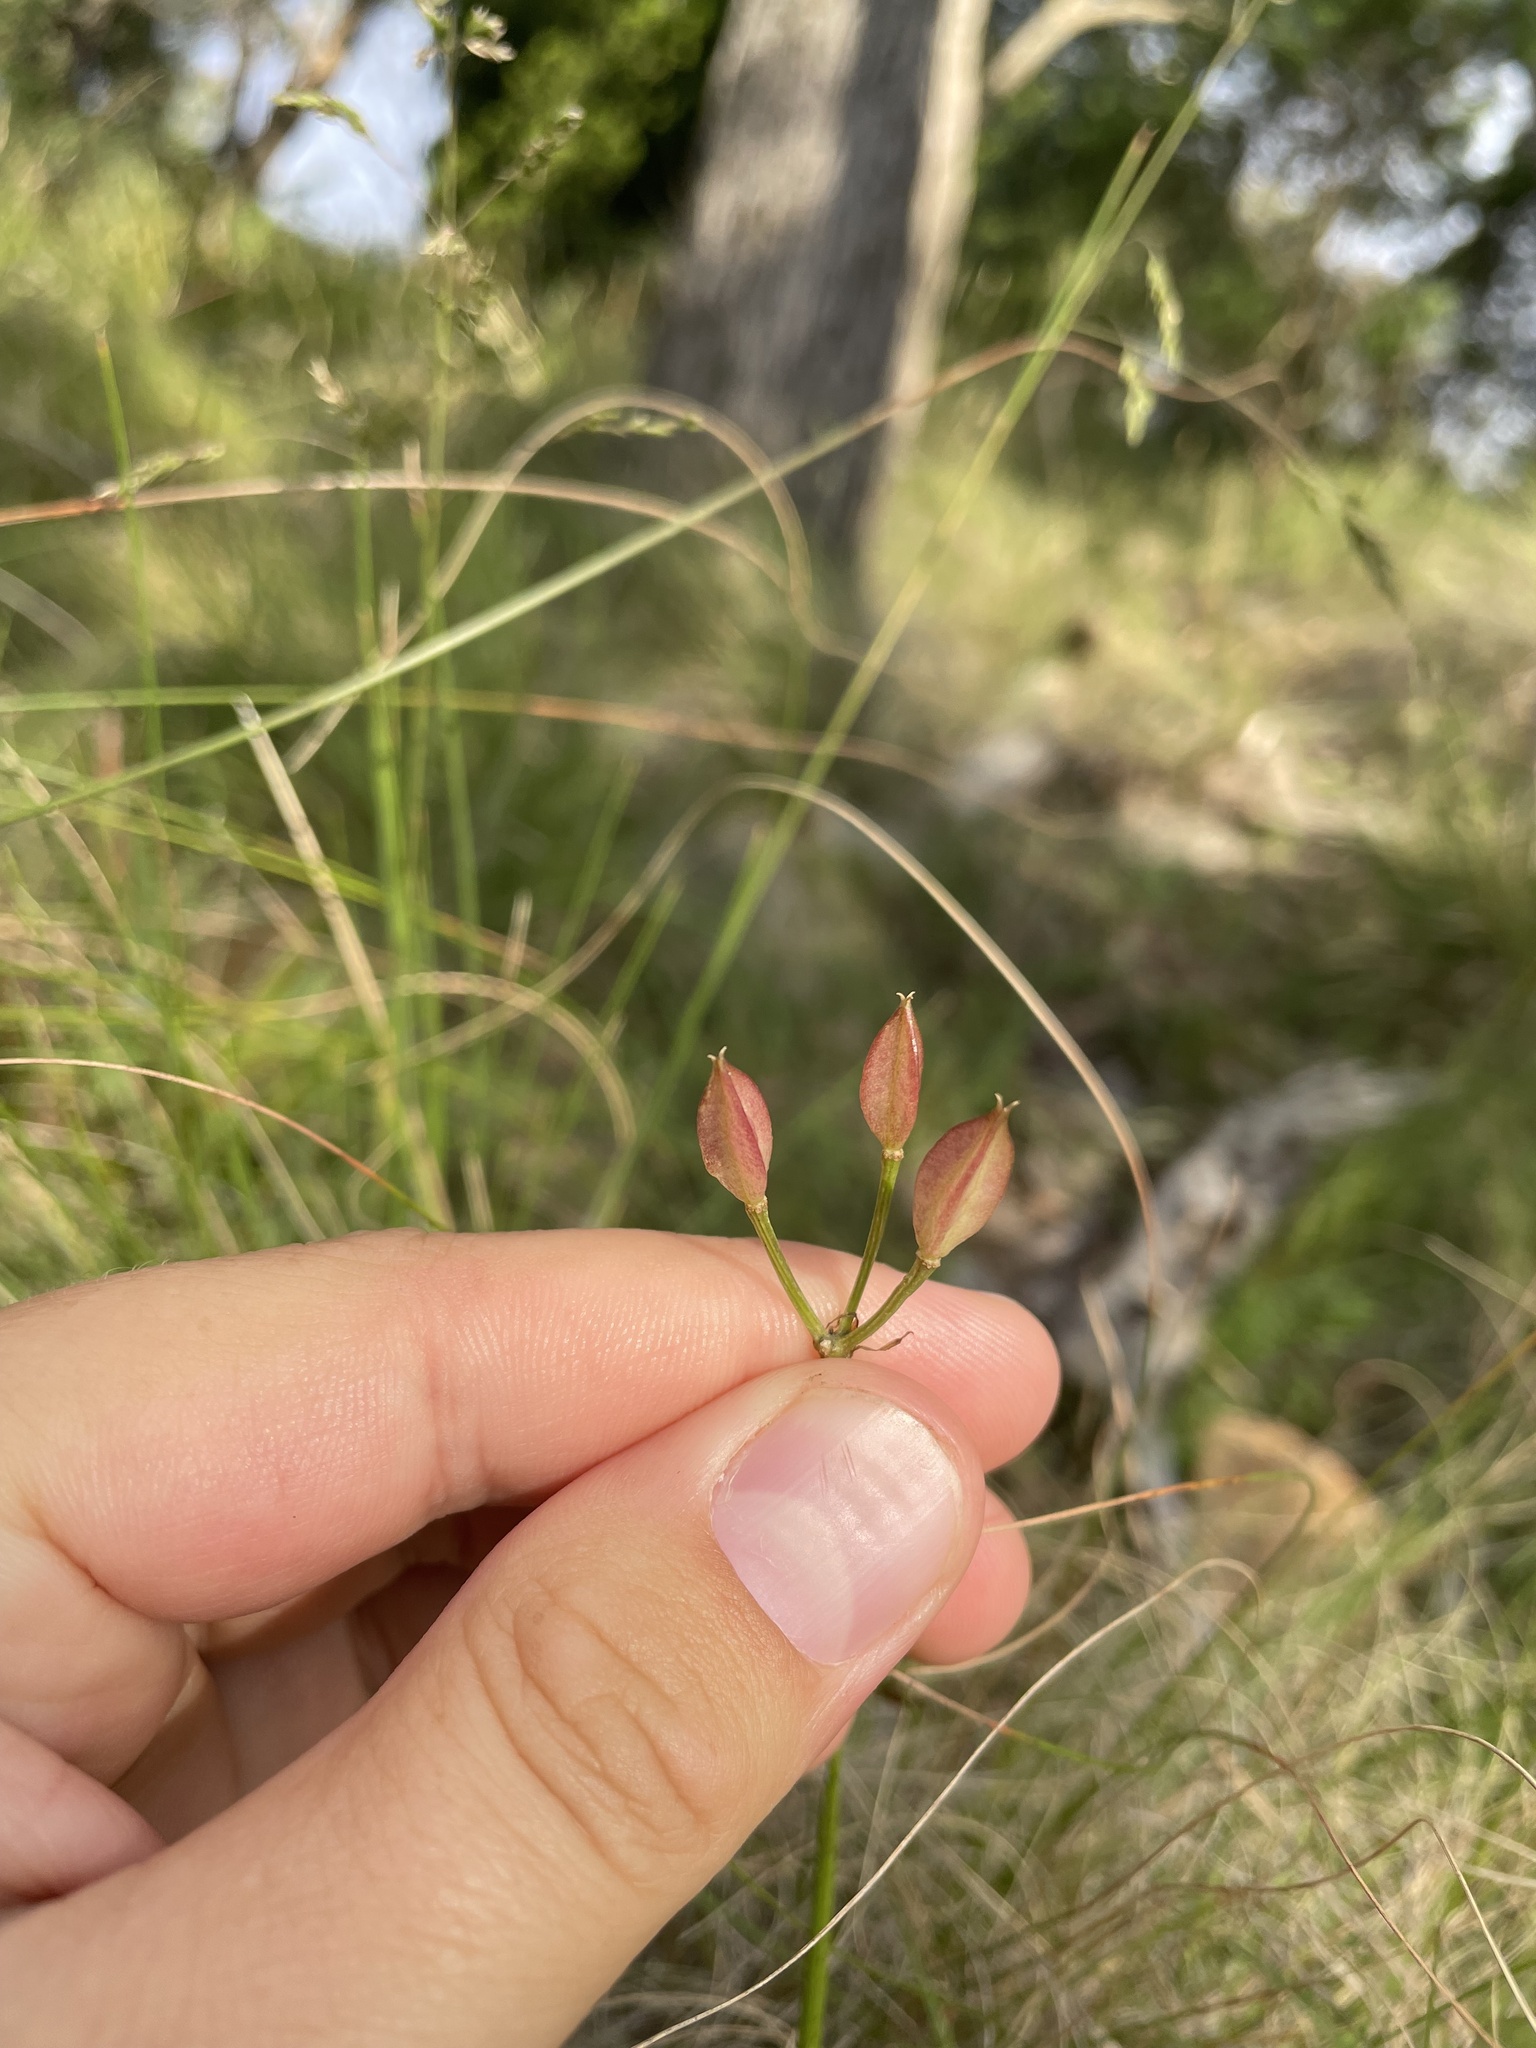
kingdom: Plantae
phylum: Tracheophyta
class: Liliopsida
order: Liliales
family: Colchicaceae
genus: Burchardia
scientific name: Burchardia umbellata
